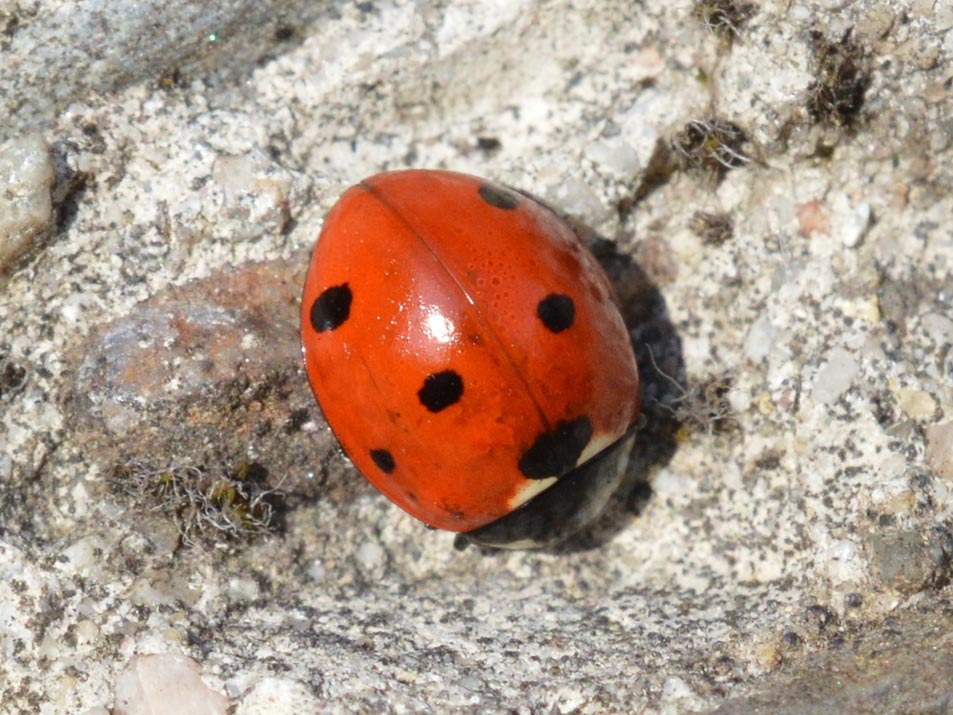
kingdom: Animalia
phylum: Arthropoda
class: Insecta
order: Coleoptera
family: Coccinellidae
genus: Coccinella
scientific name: Coccinella septempunctata
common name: Sevenspotted lady beetle
